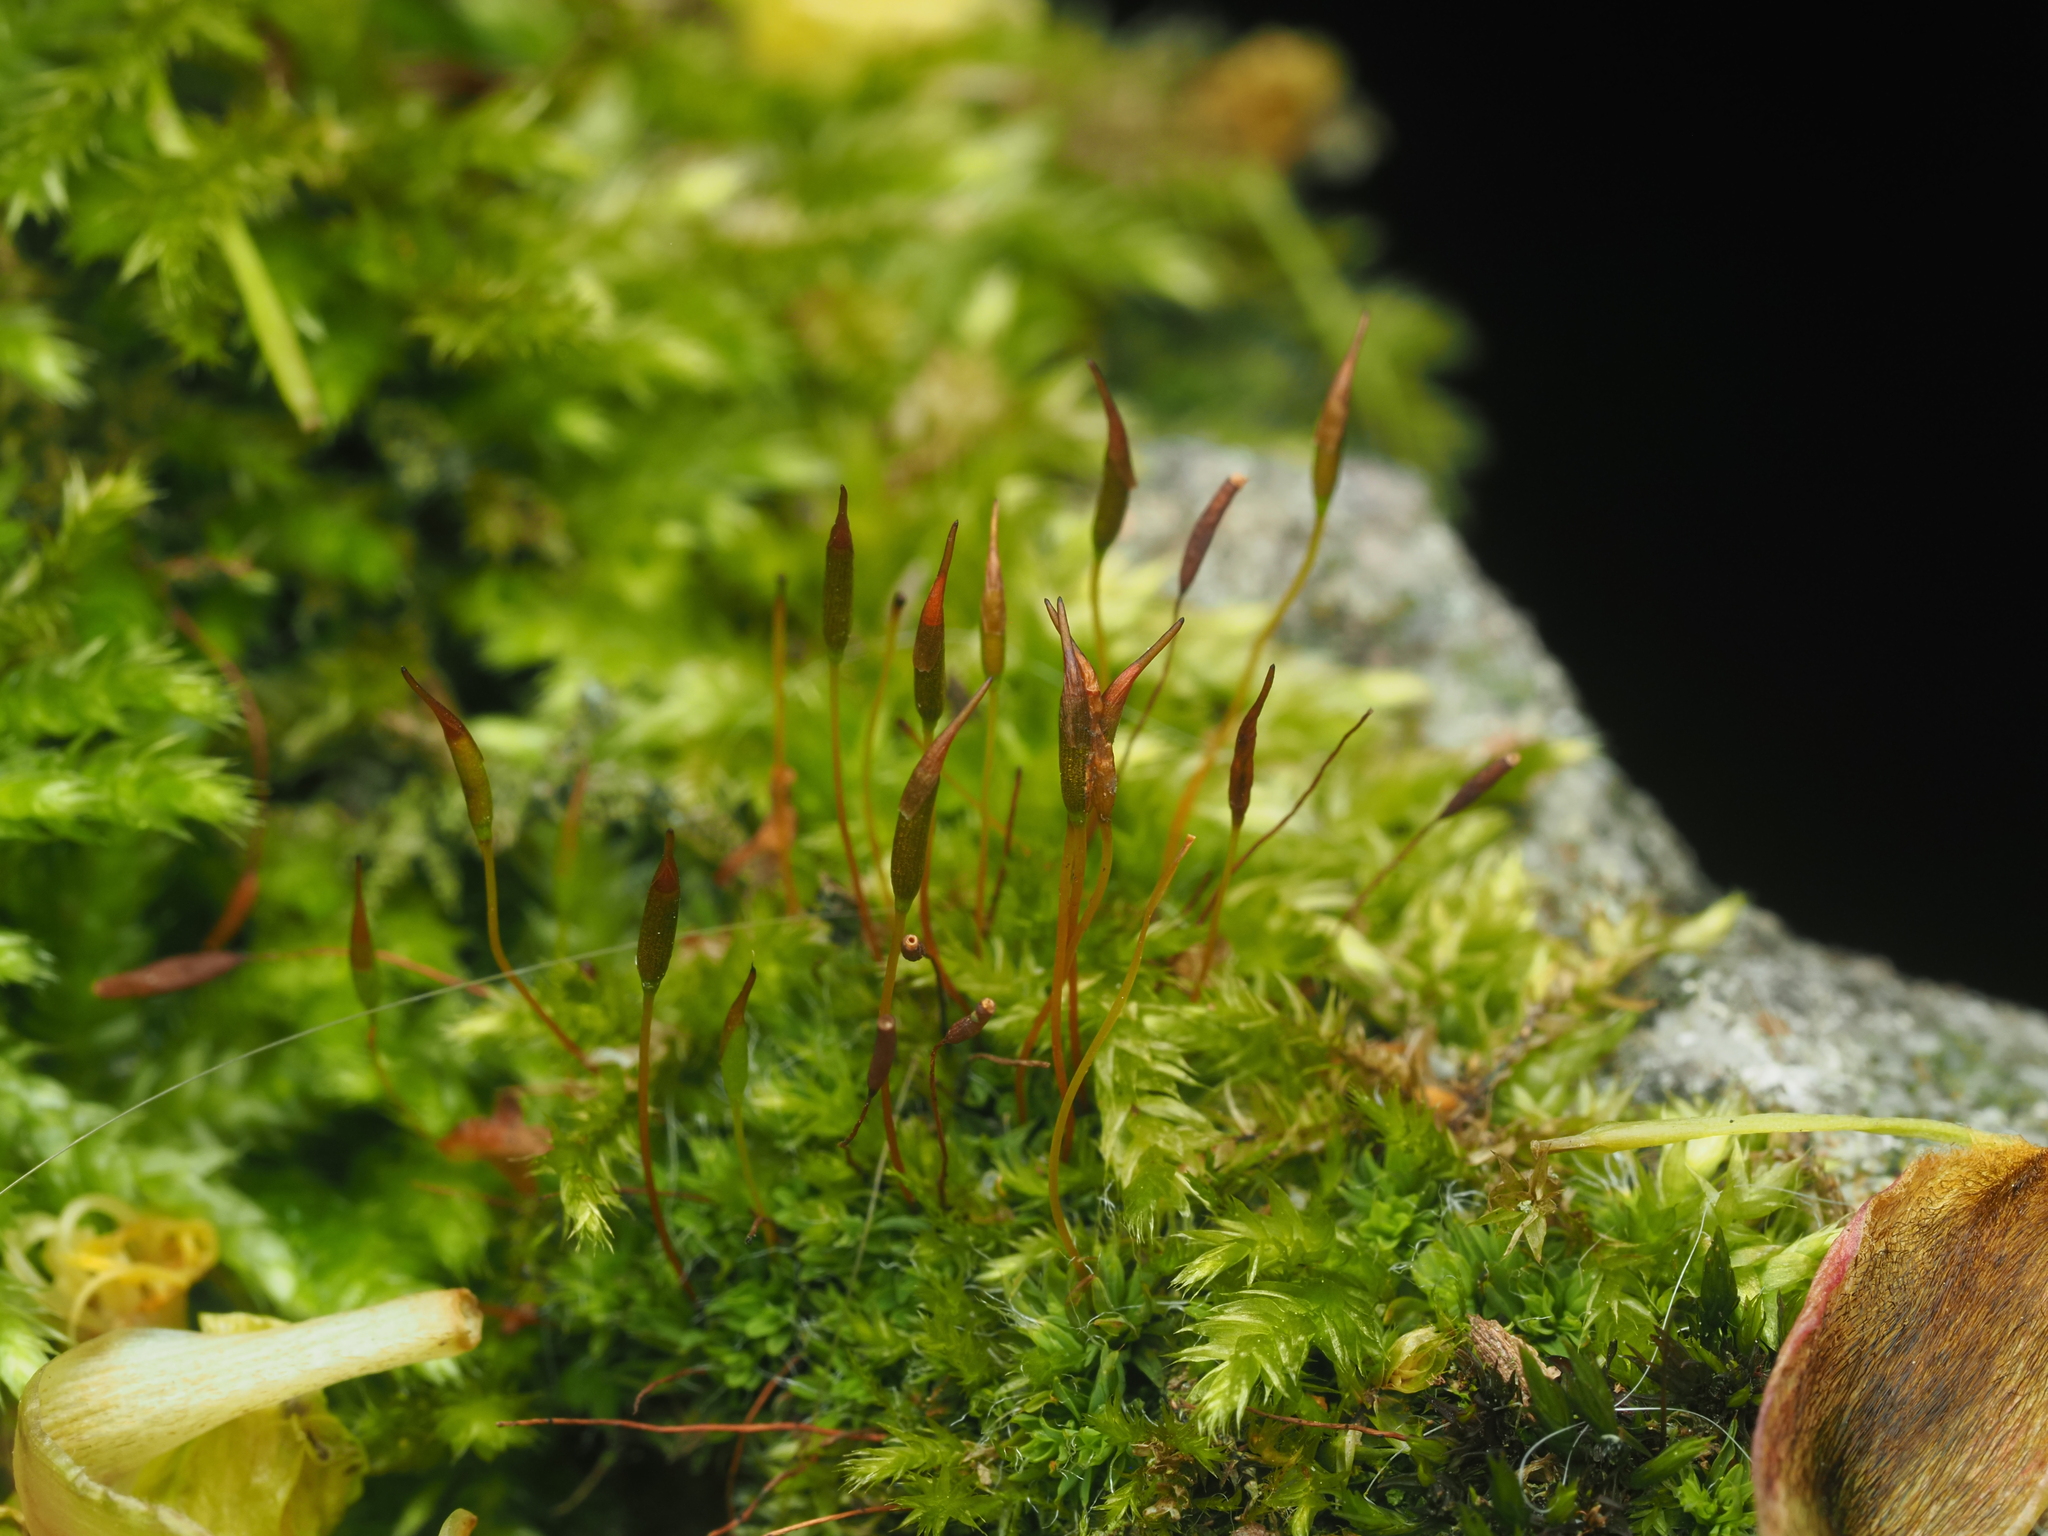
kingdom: Plantae
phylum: Bryophyta
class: Bryopsida
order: Pottiales
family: Pottiaceae
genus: Tortula
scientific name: Tortula muralis
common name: Wall screw-moss
